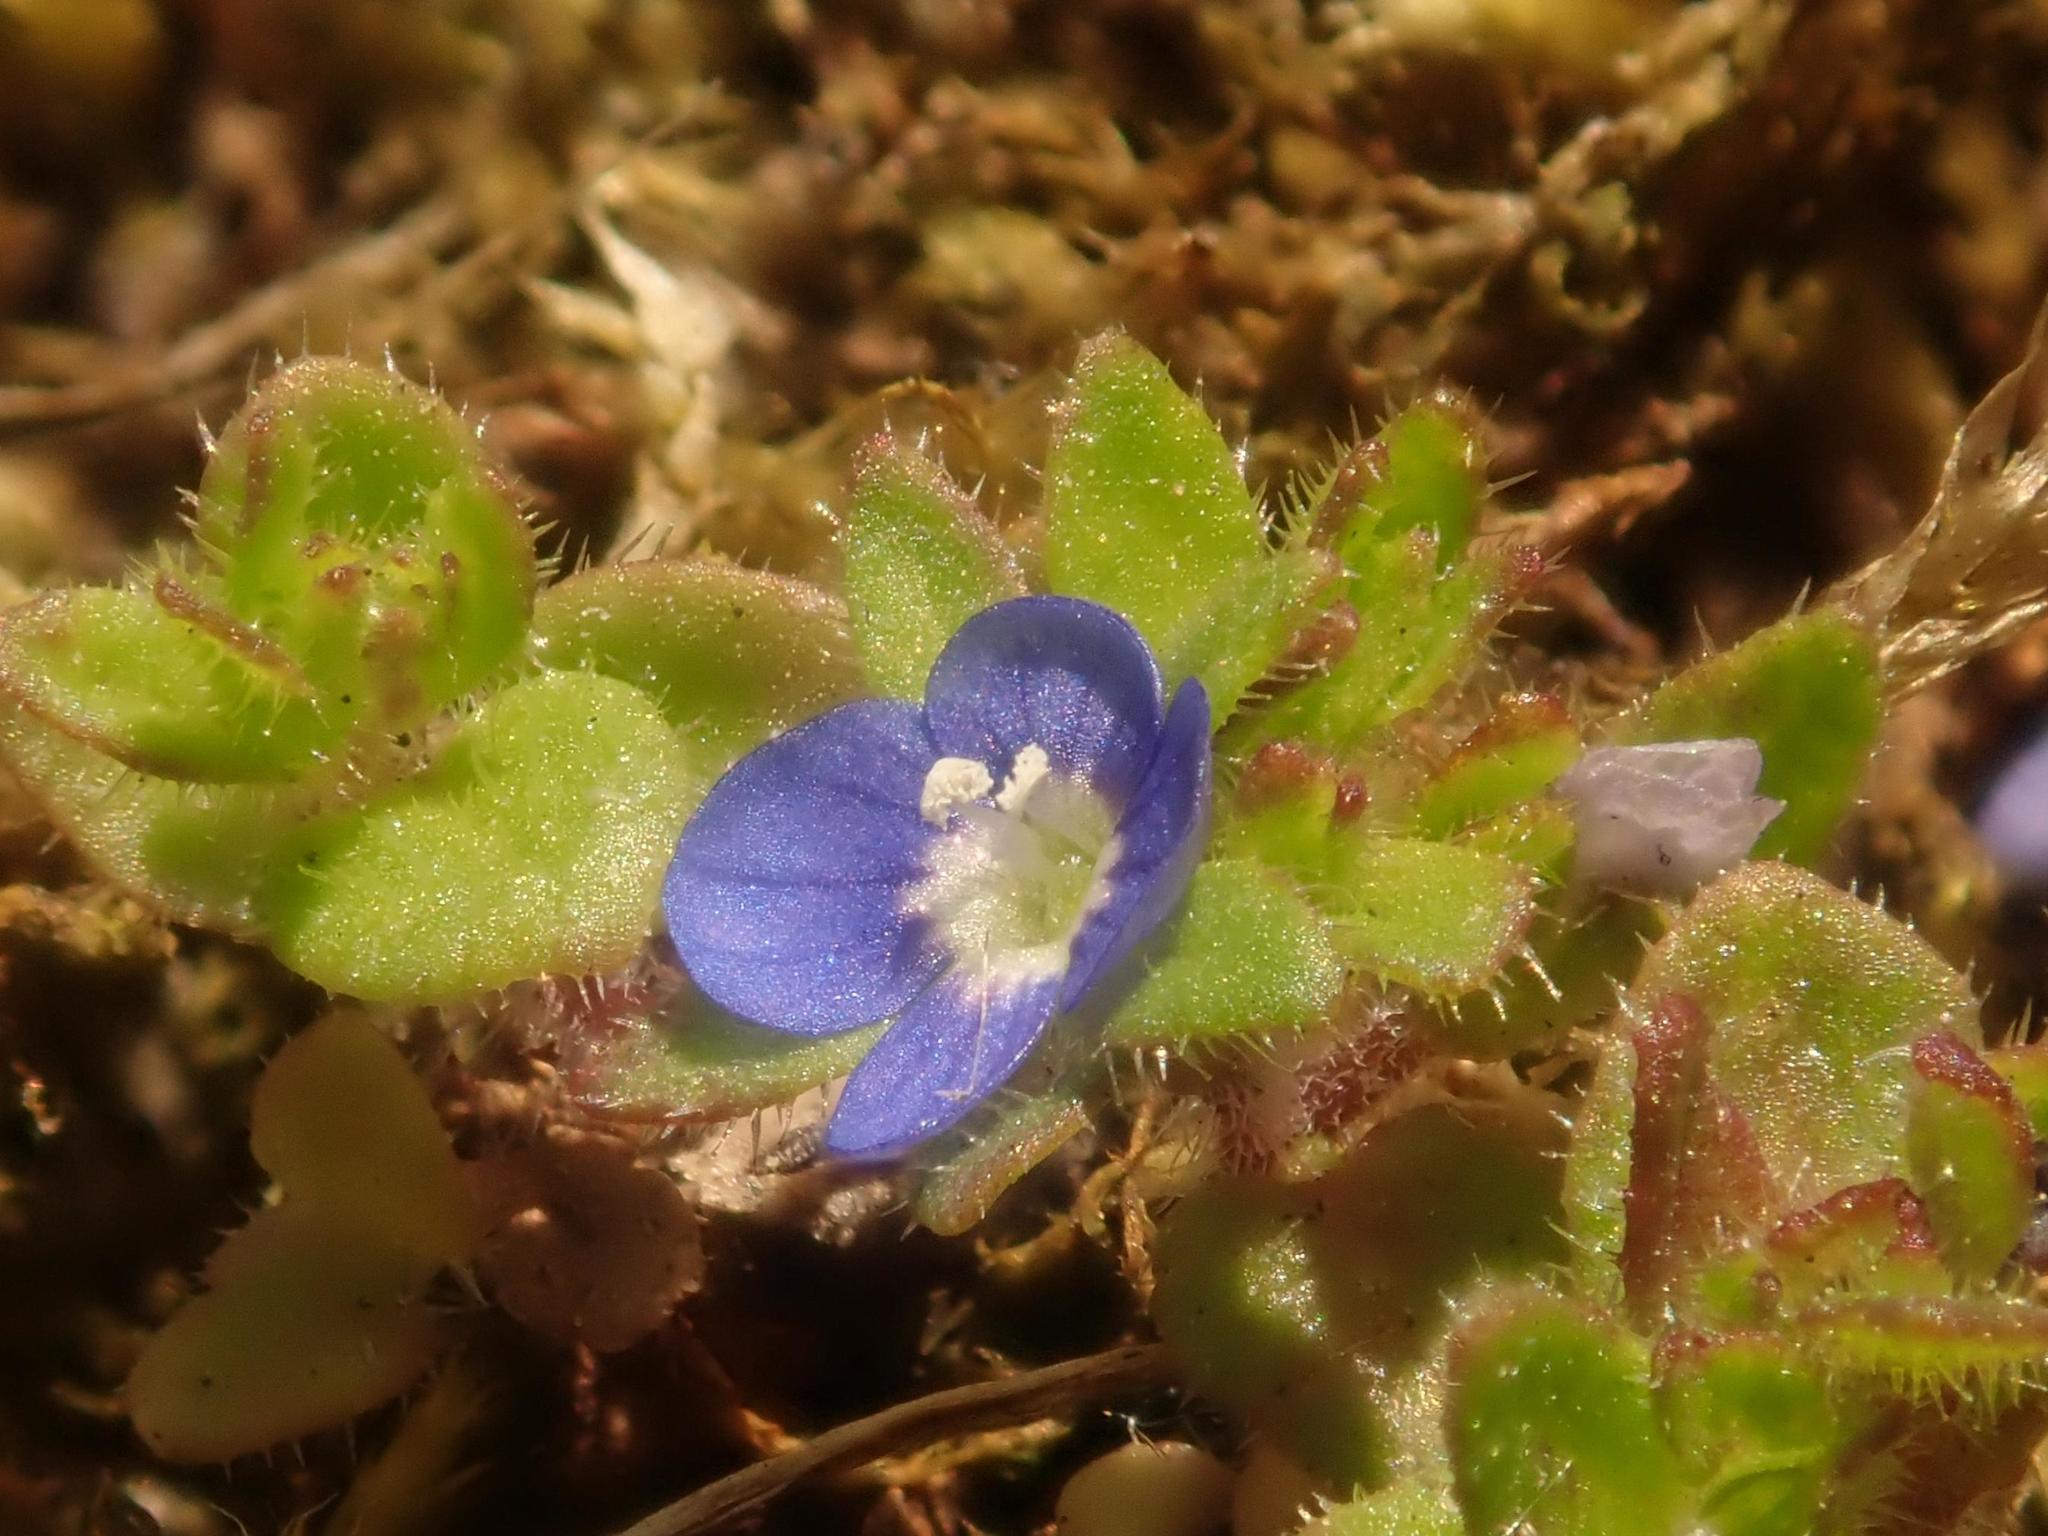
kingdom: Plantae
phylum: Tracheophyta
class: Magnoliopsida
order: Lamiales
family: Plantaginaceae
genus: Veronica
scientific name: Veronica arvensis
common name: Corn speedwell
